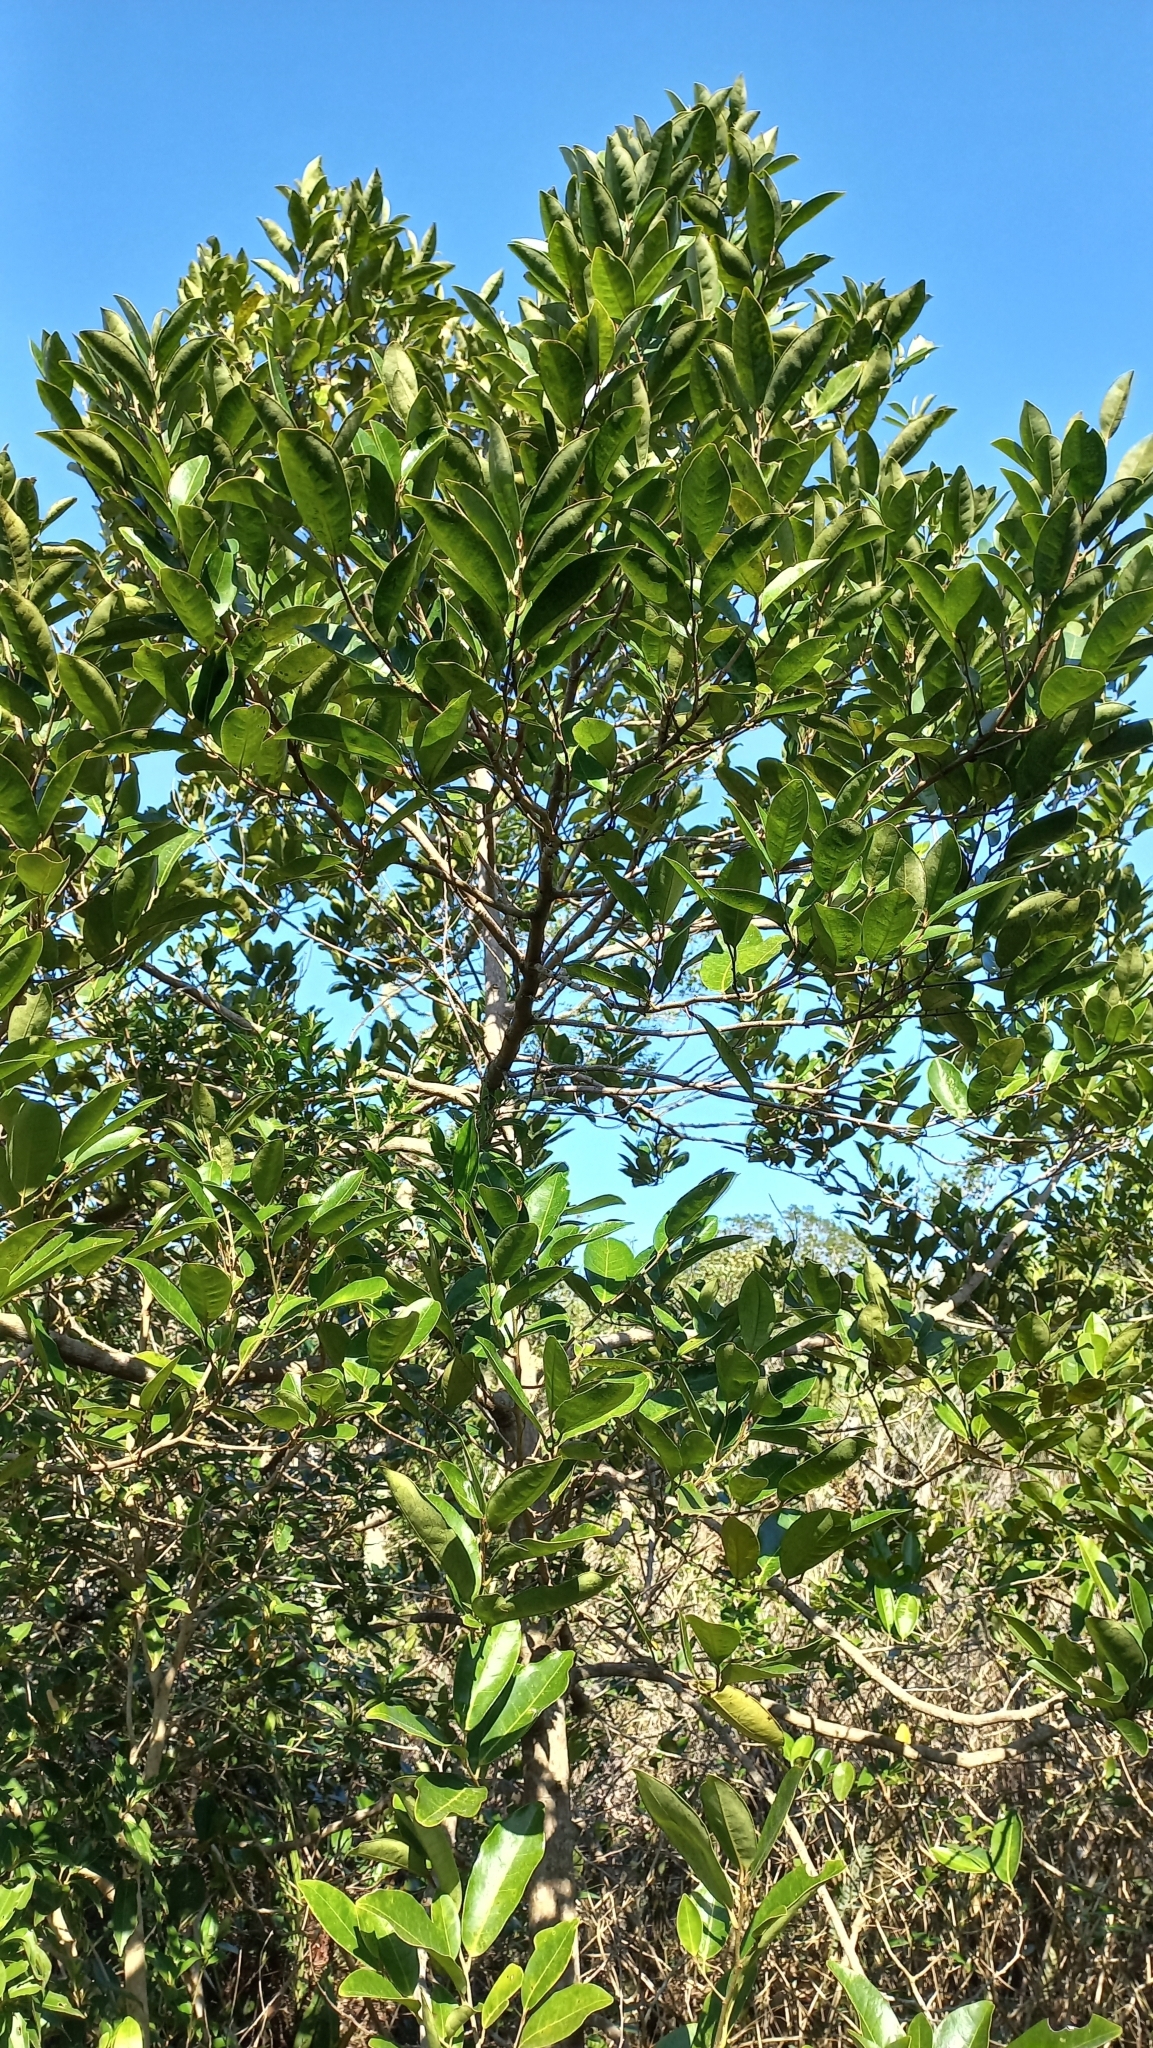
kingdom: Plantae
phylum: Tracheophyta
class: Magnoliopsida
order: Malpighiales
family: Peraceae
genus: Pera
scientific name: Pera glabrata
